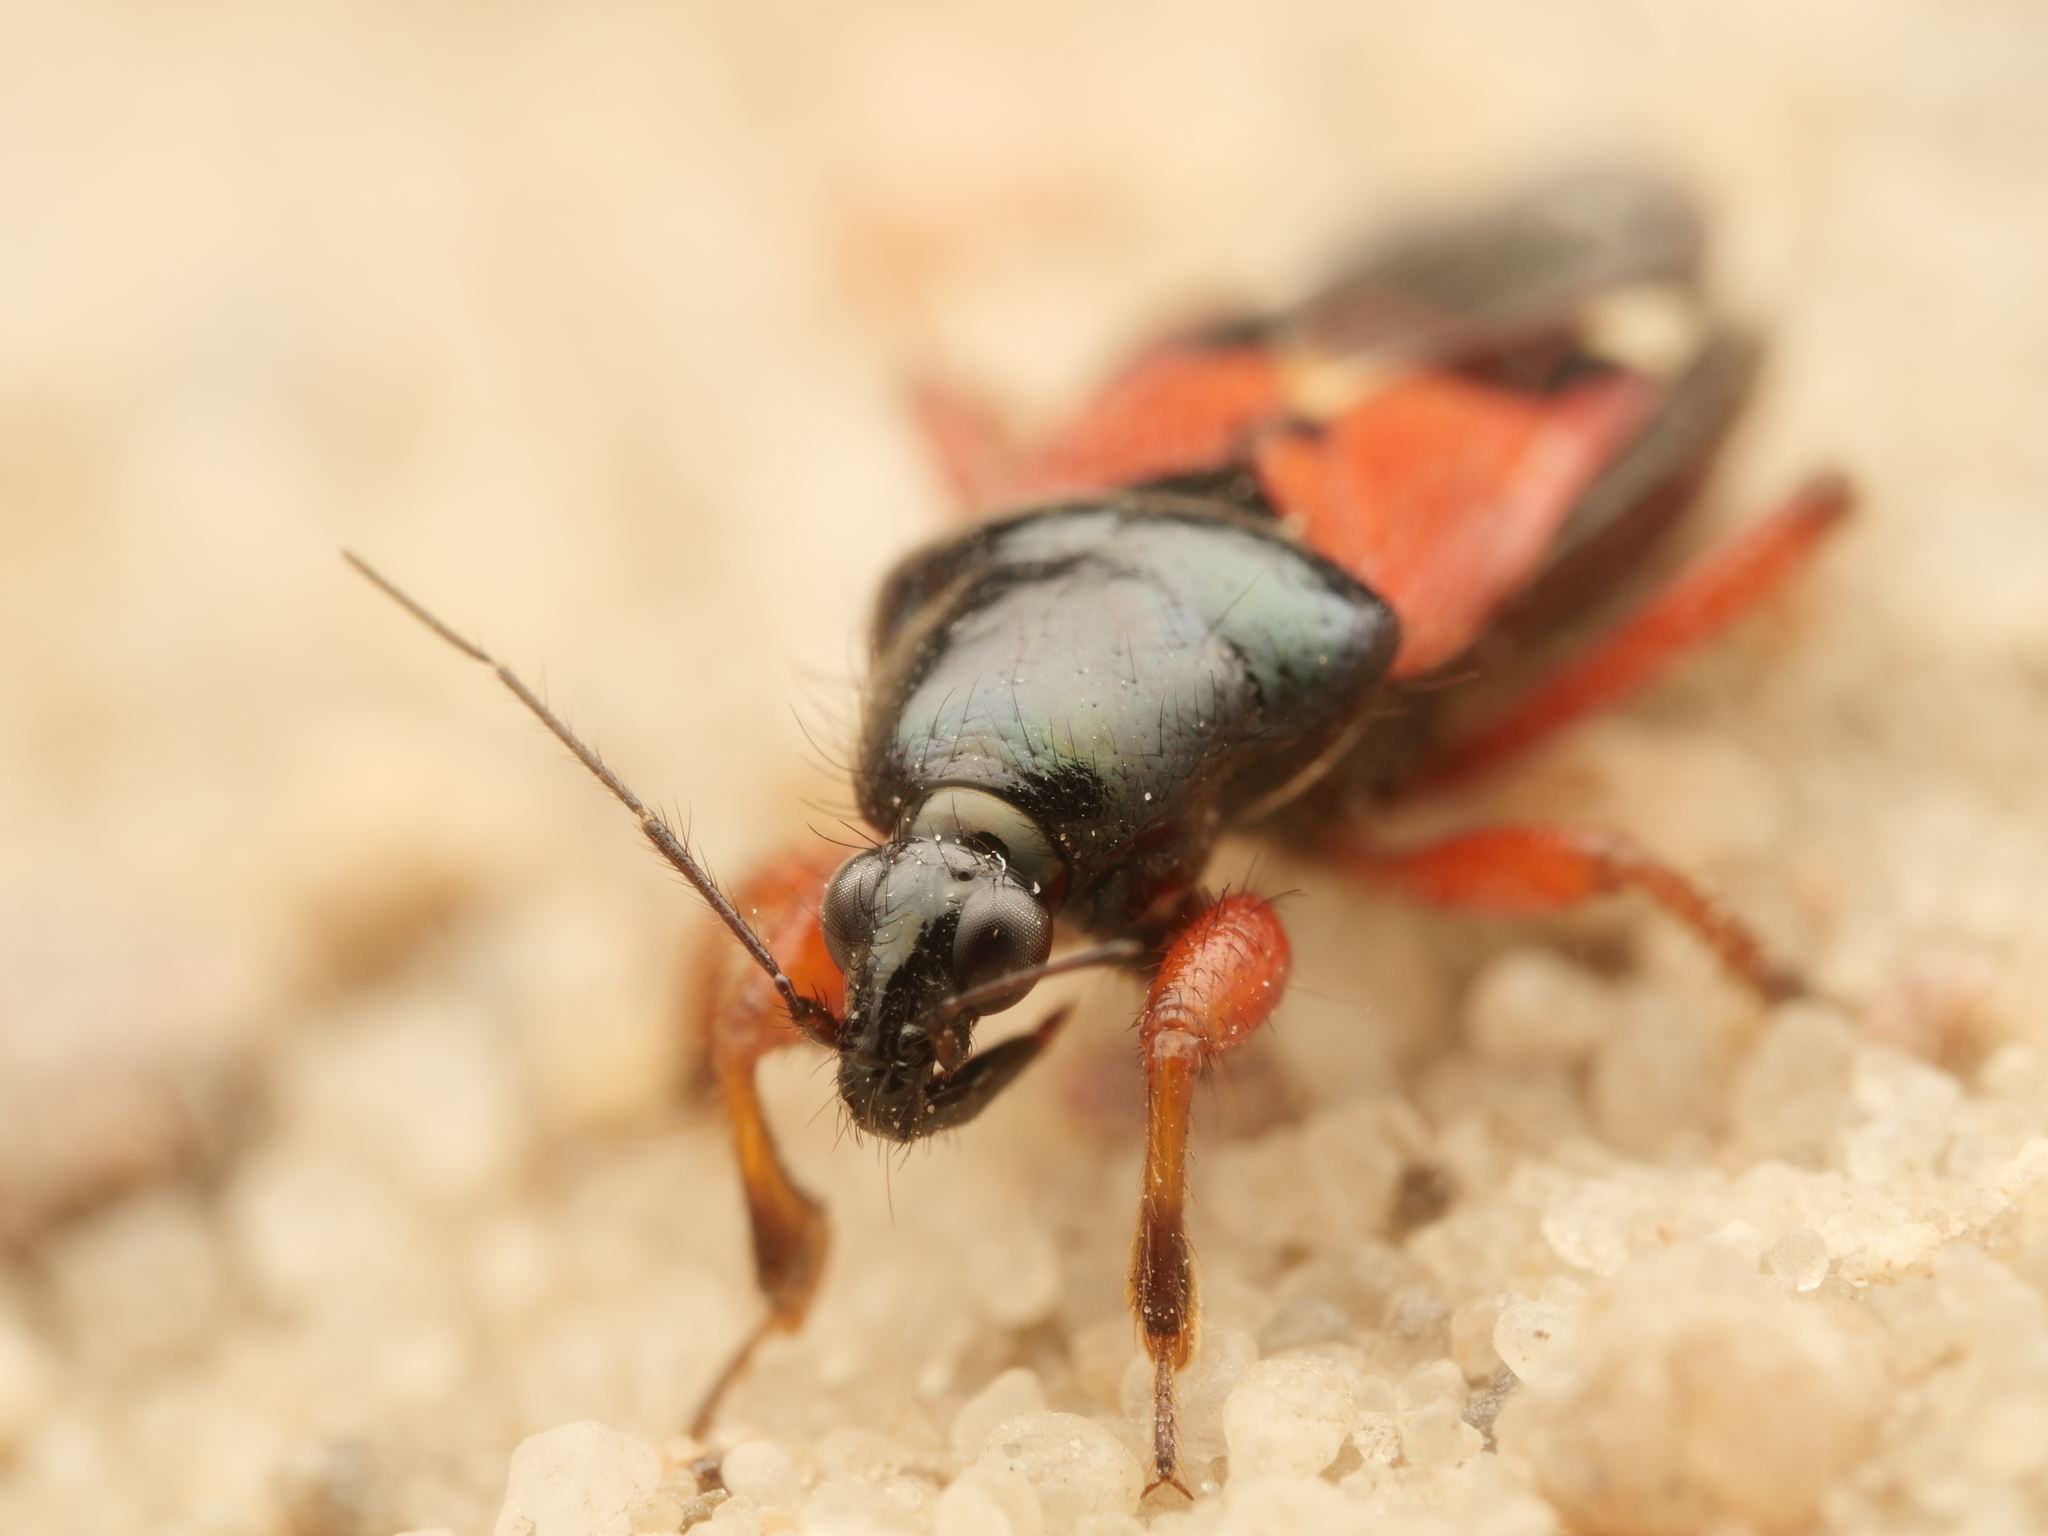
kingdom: Animalia
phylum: Arthropoda
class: Insecta
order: Hemiptera
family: Nabidae
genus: Prostemma
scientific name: Prostemma guttula
